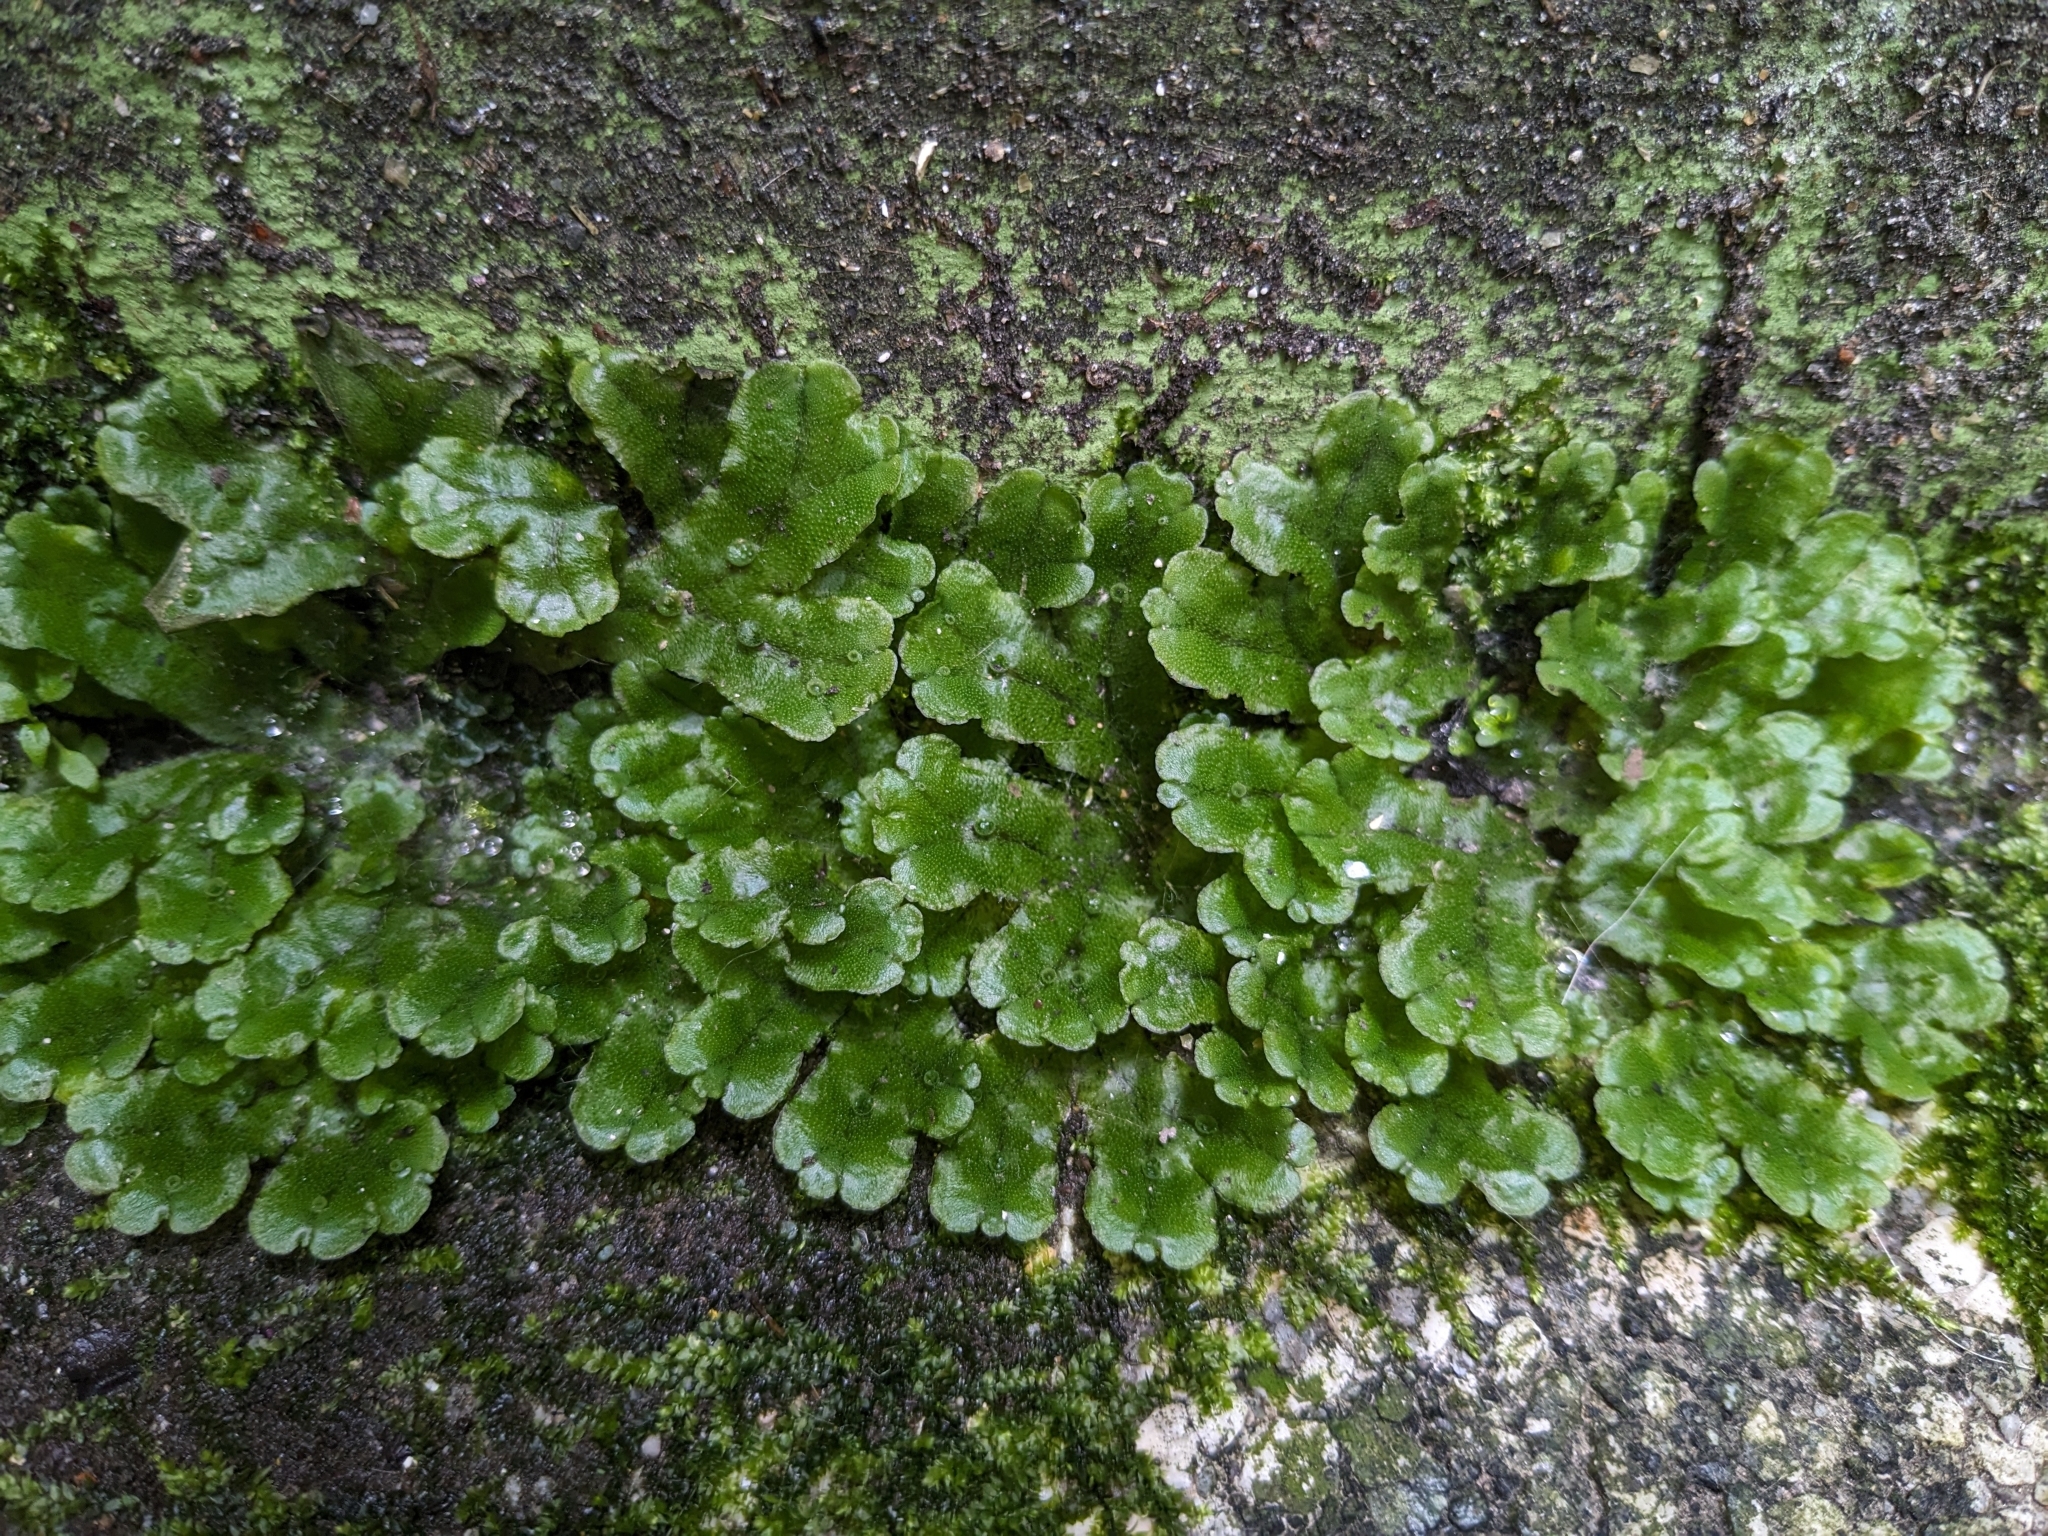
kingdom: Plantae
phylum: Marchantiophyta
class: Marchantiopsida
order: Marchantiales
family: Marchantiaceae
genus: Marchantia
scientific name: Marchantia polymorpha
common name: Common liverwort
